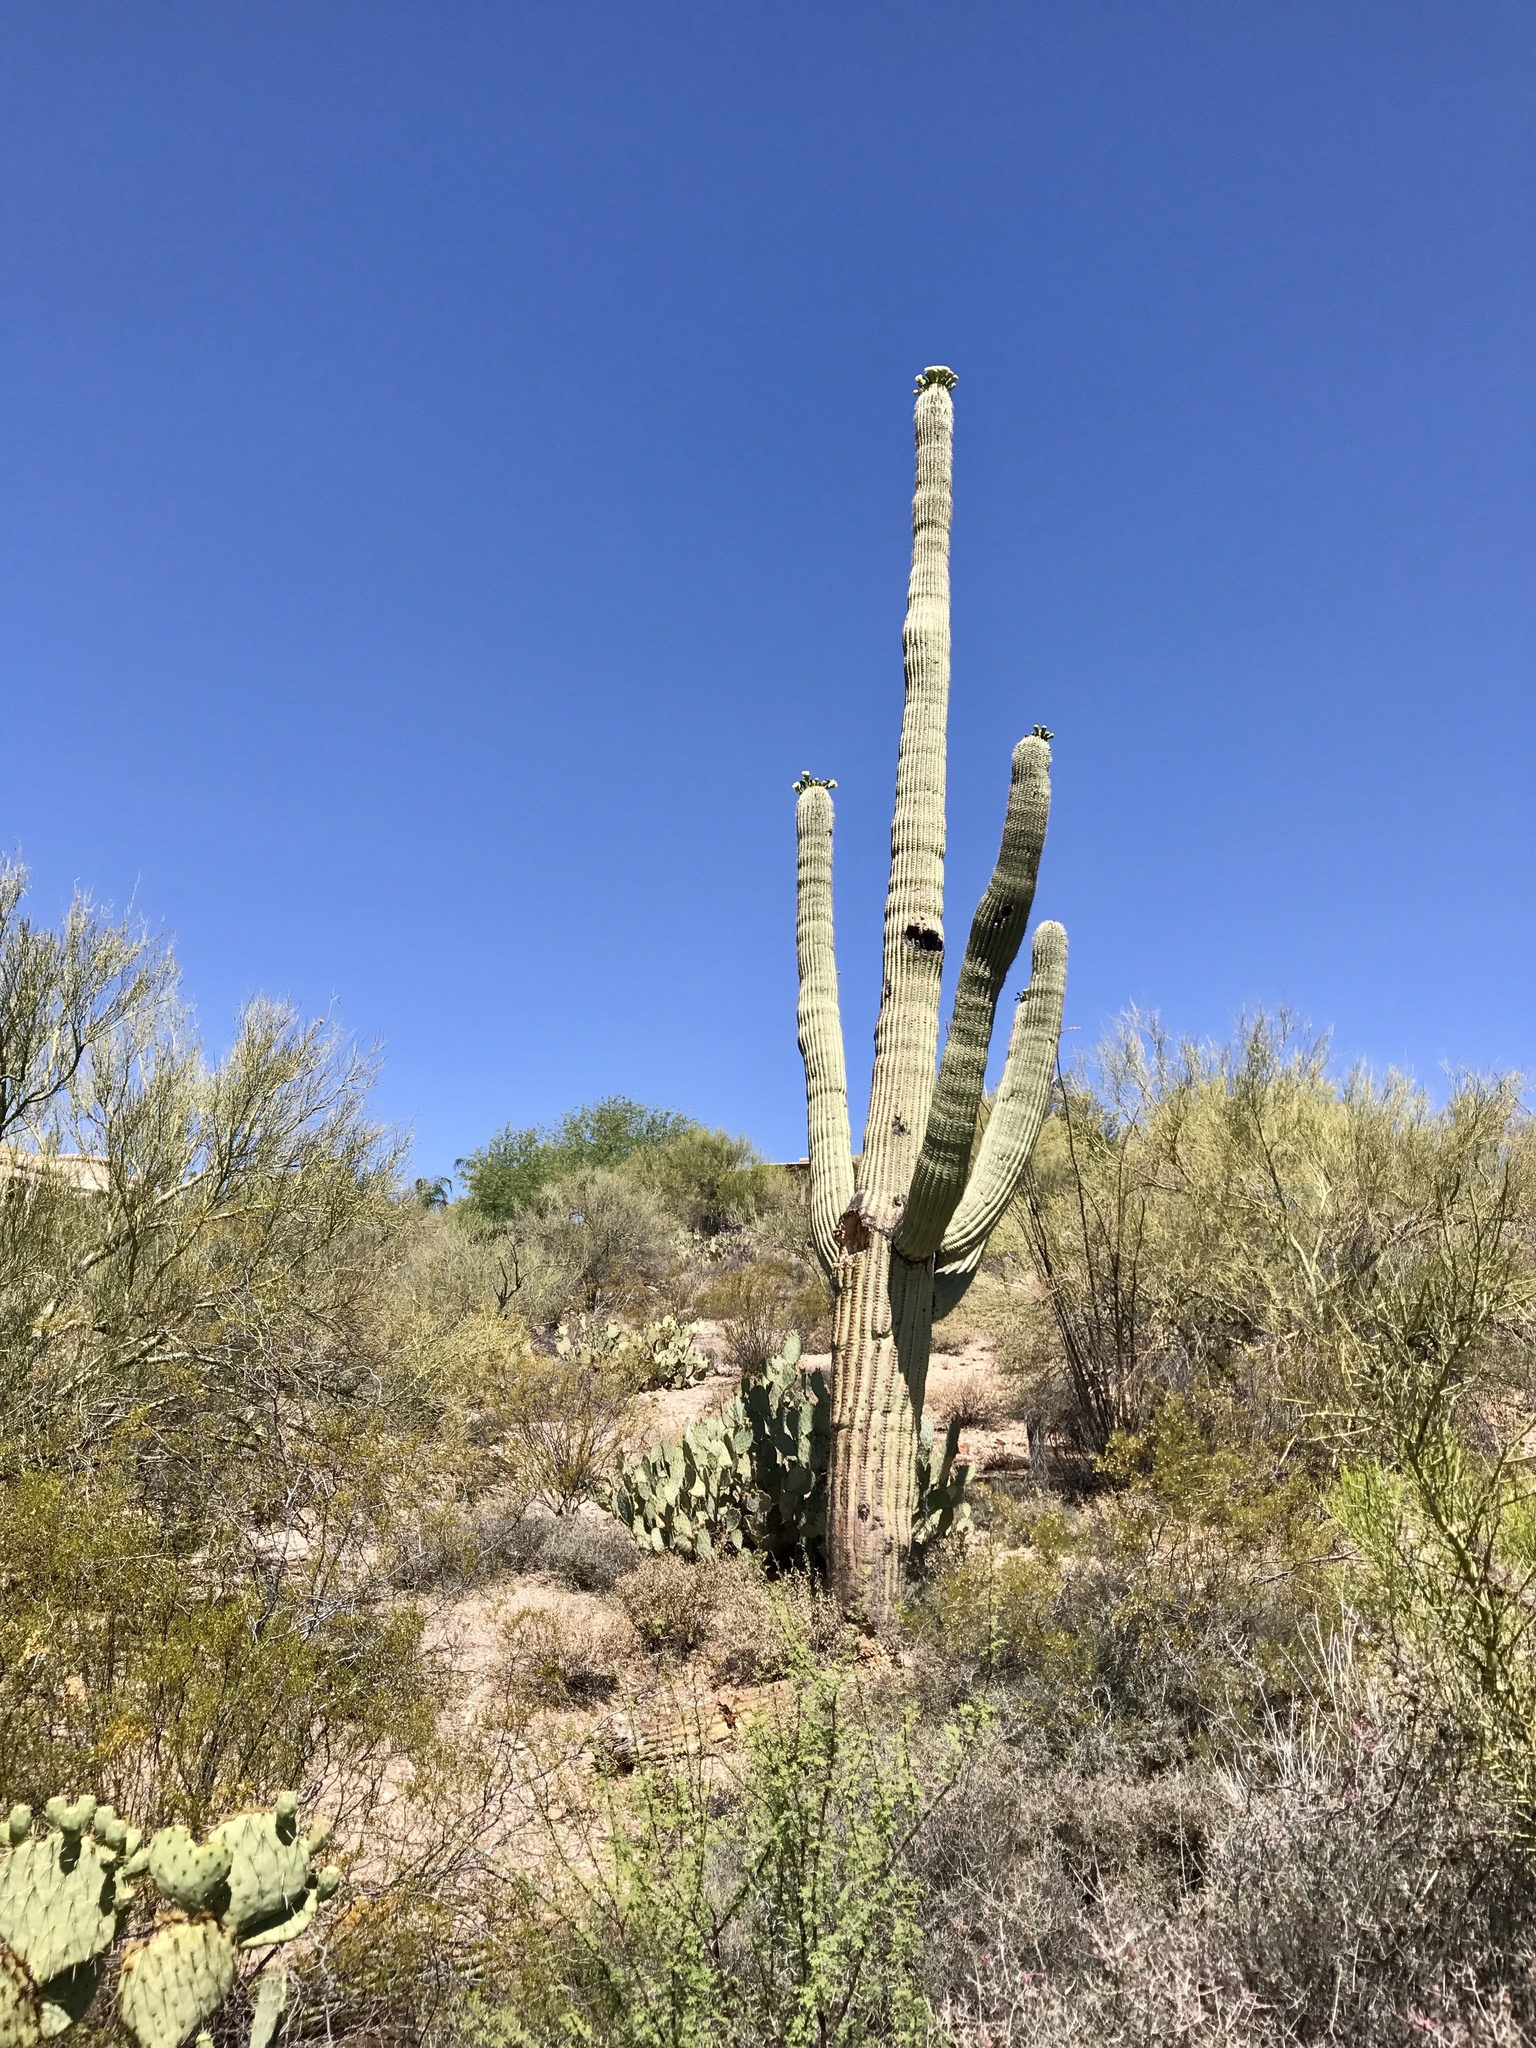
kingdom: Plantae
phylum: Tracheophyta
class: Magnoliopsida
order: Caryophyllales
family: Cactaceae
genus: Carnegiea
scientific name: Carnegiea gigantea
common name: Saguaro
